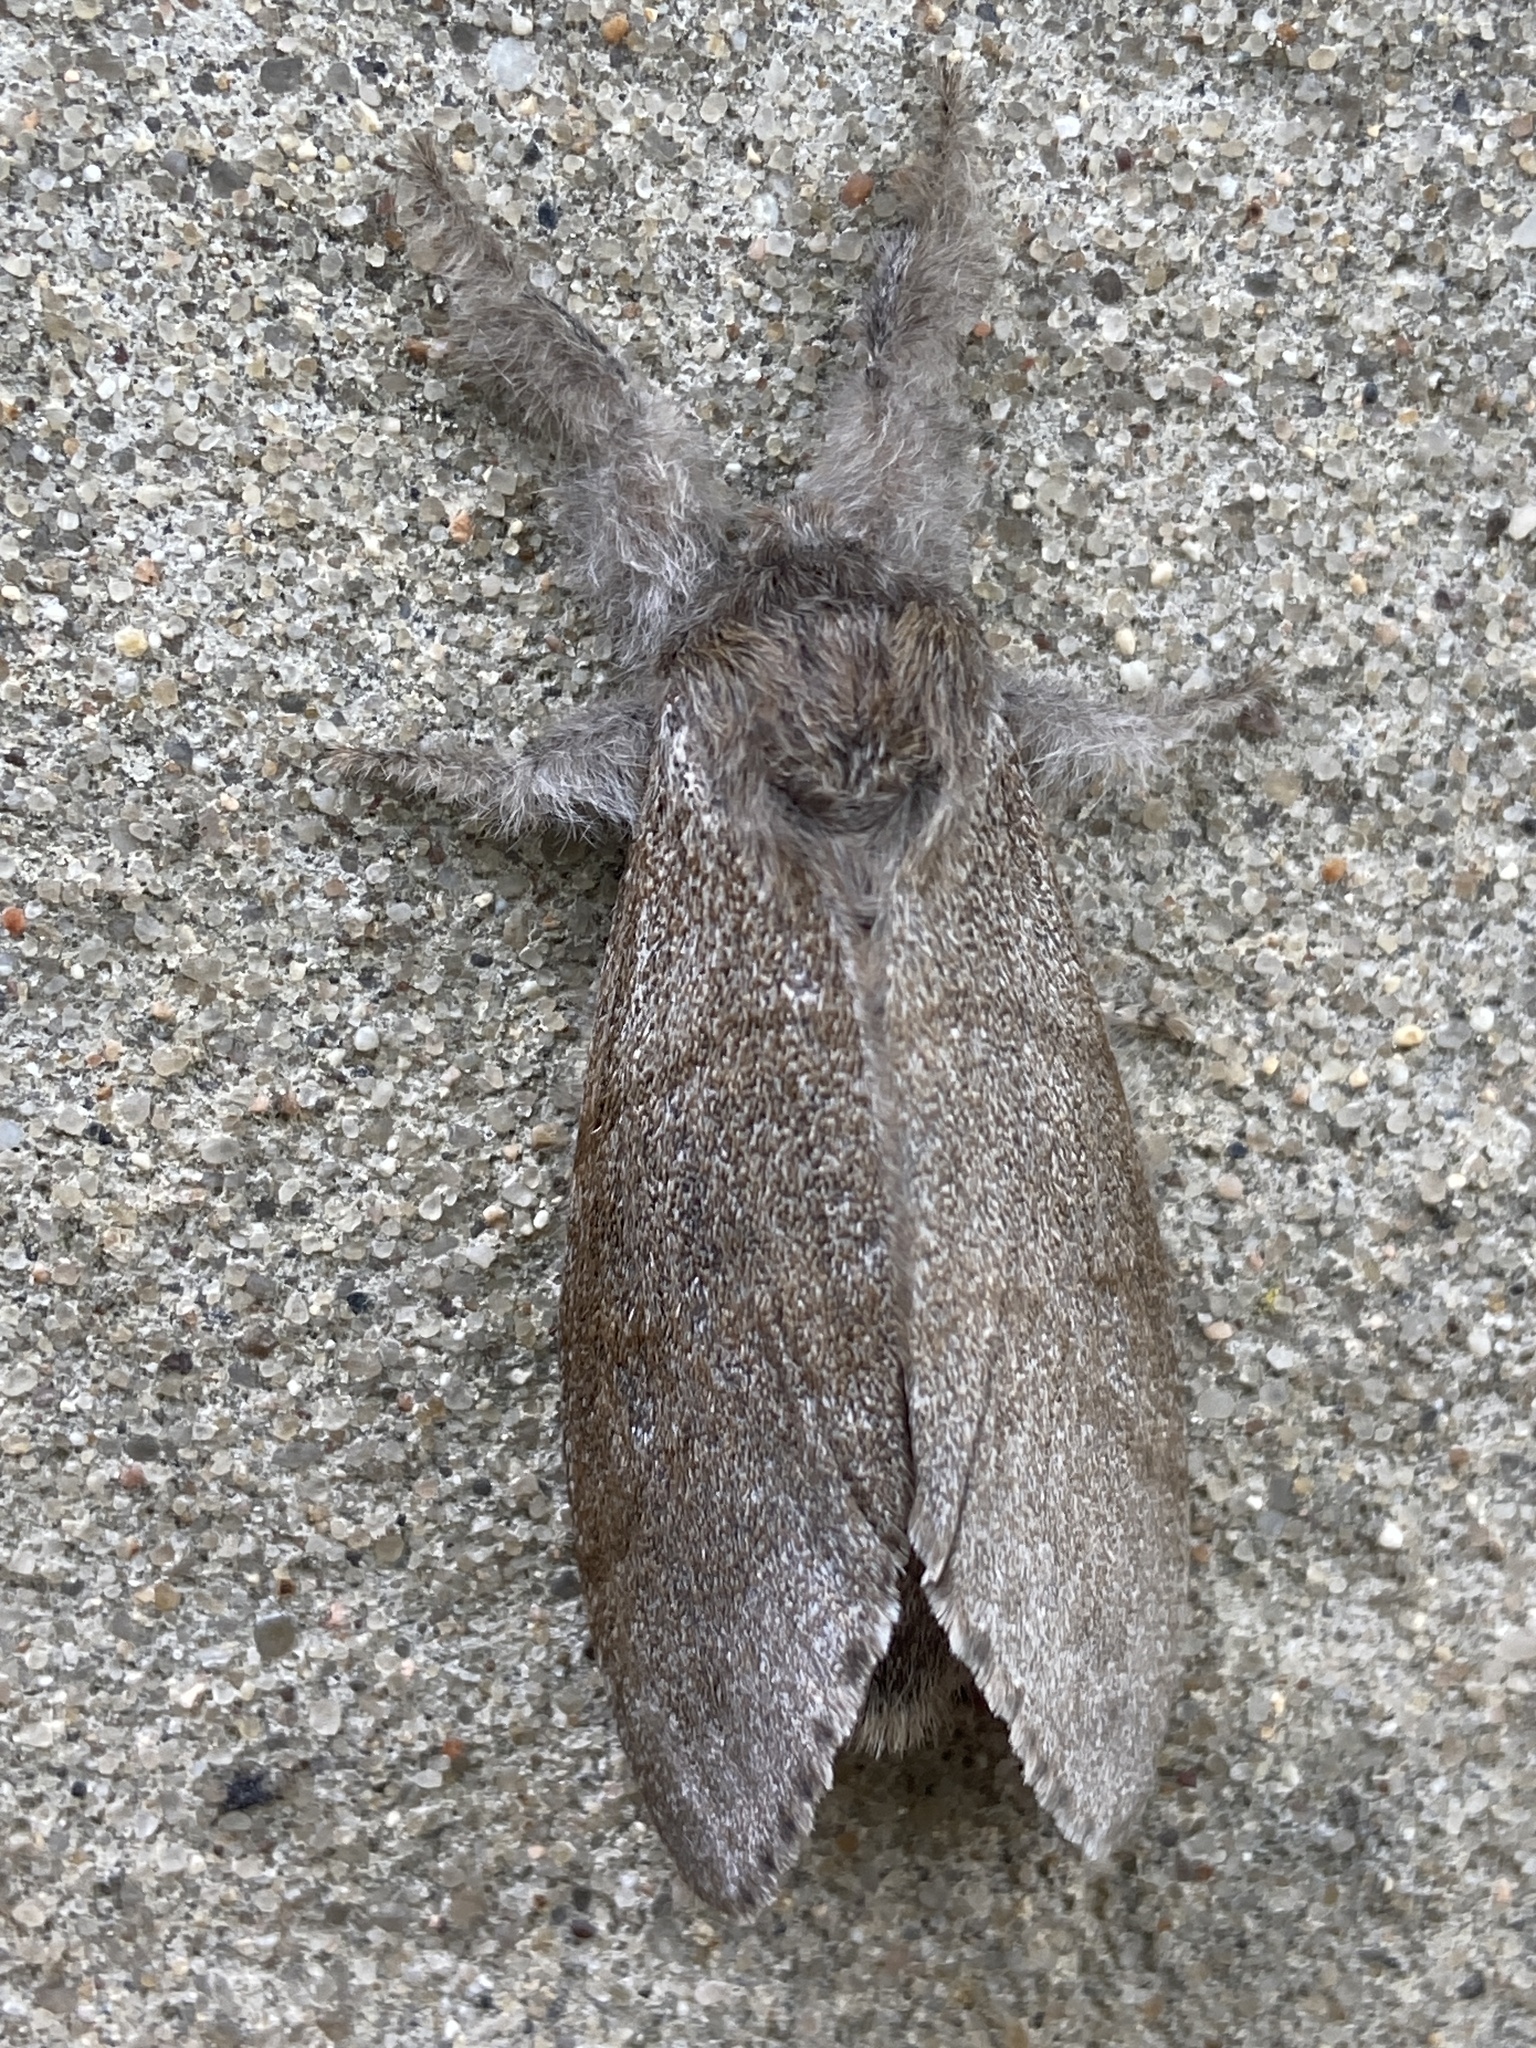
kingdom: Animalia
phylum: Arthropoda
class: Insecta
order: Lepidoptera
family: Erebidae
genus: Calliteara
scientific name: Calliteara pudibunda
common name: Pale tussock
